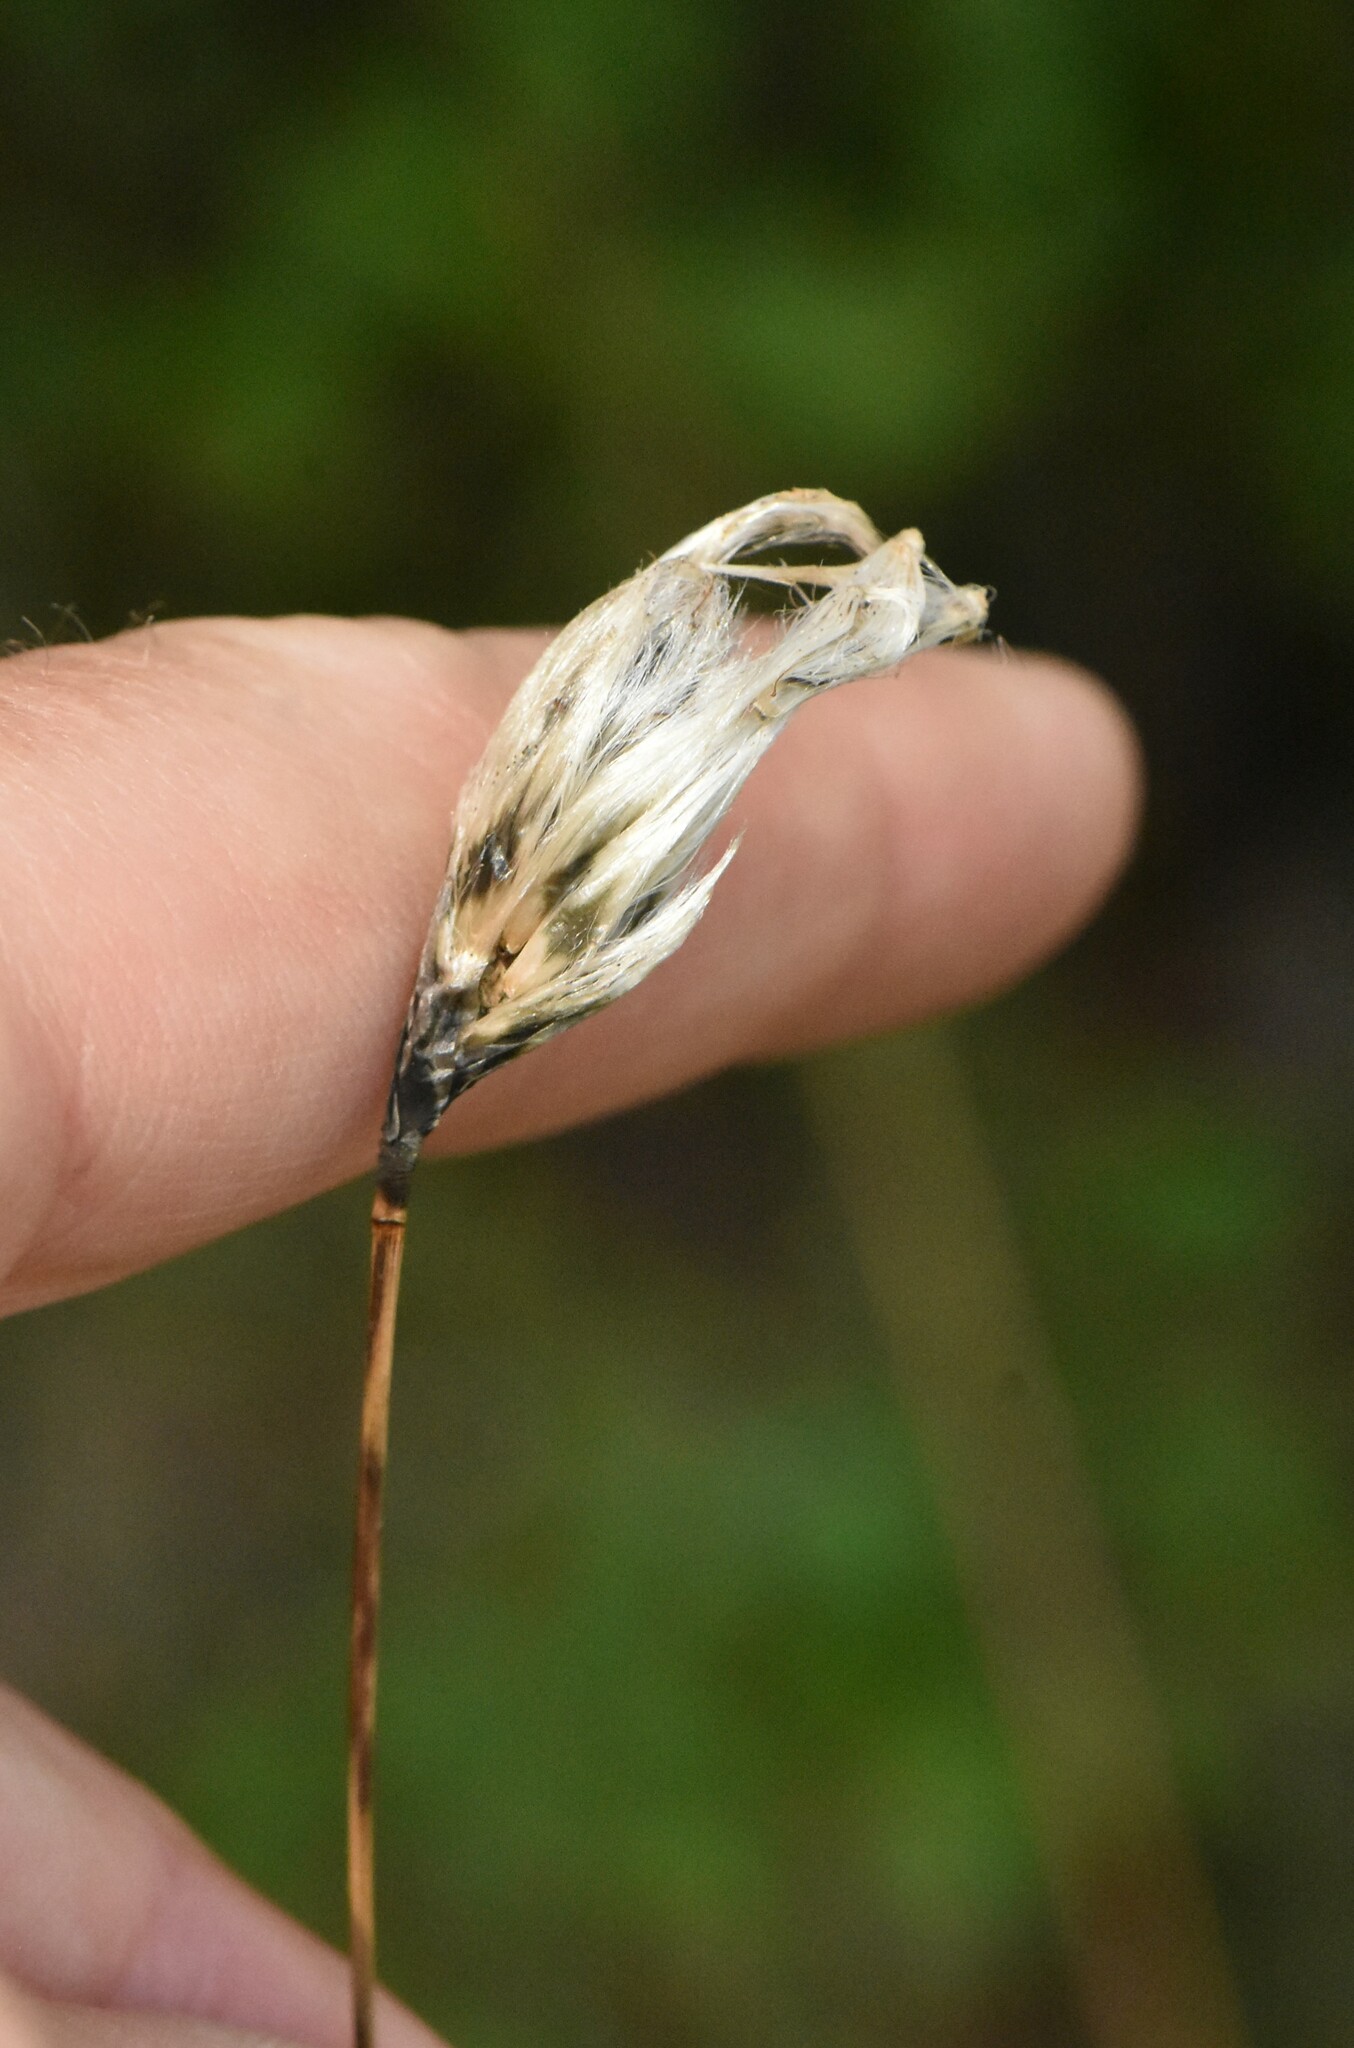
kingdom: Plantae
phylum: Tracheophyta
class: Liliopsida
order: Poales
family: Cyperaceae
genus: Eriophorum
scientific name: Eriophorum vaginatum
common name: Hare's-tail cottongrass
